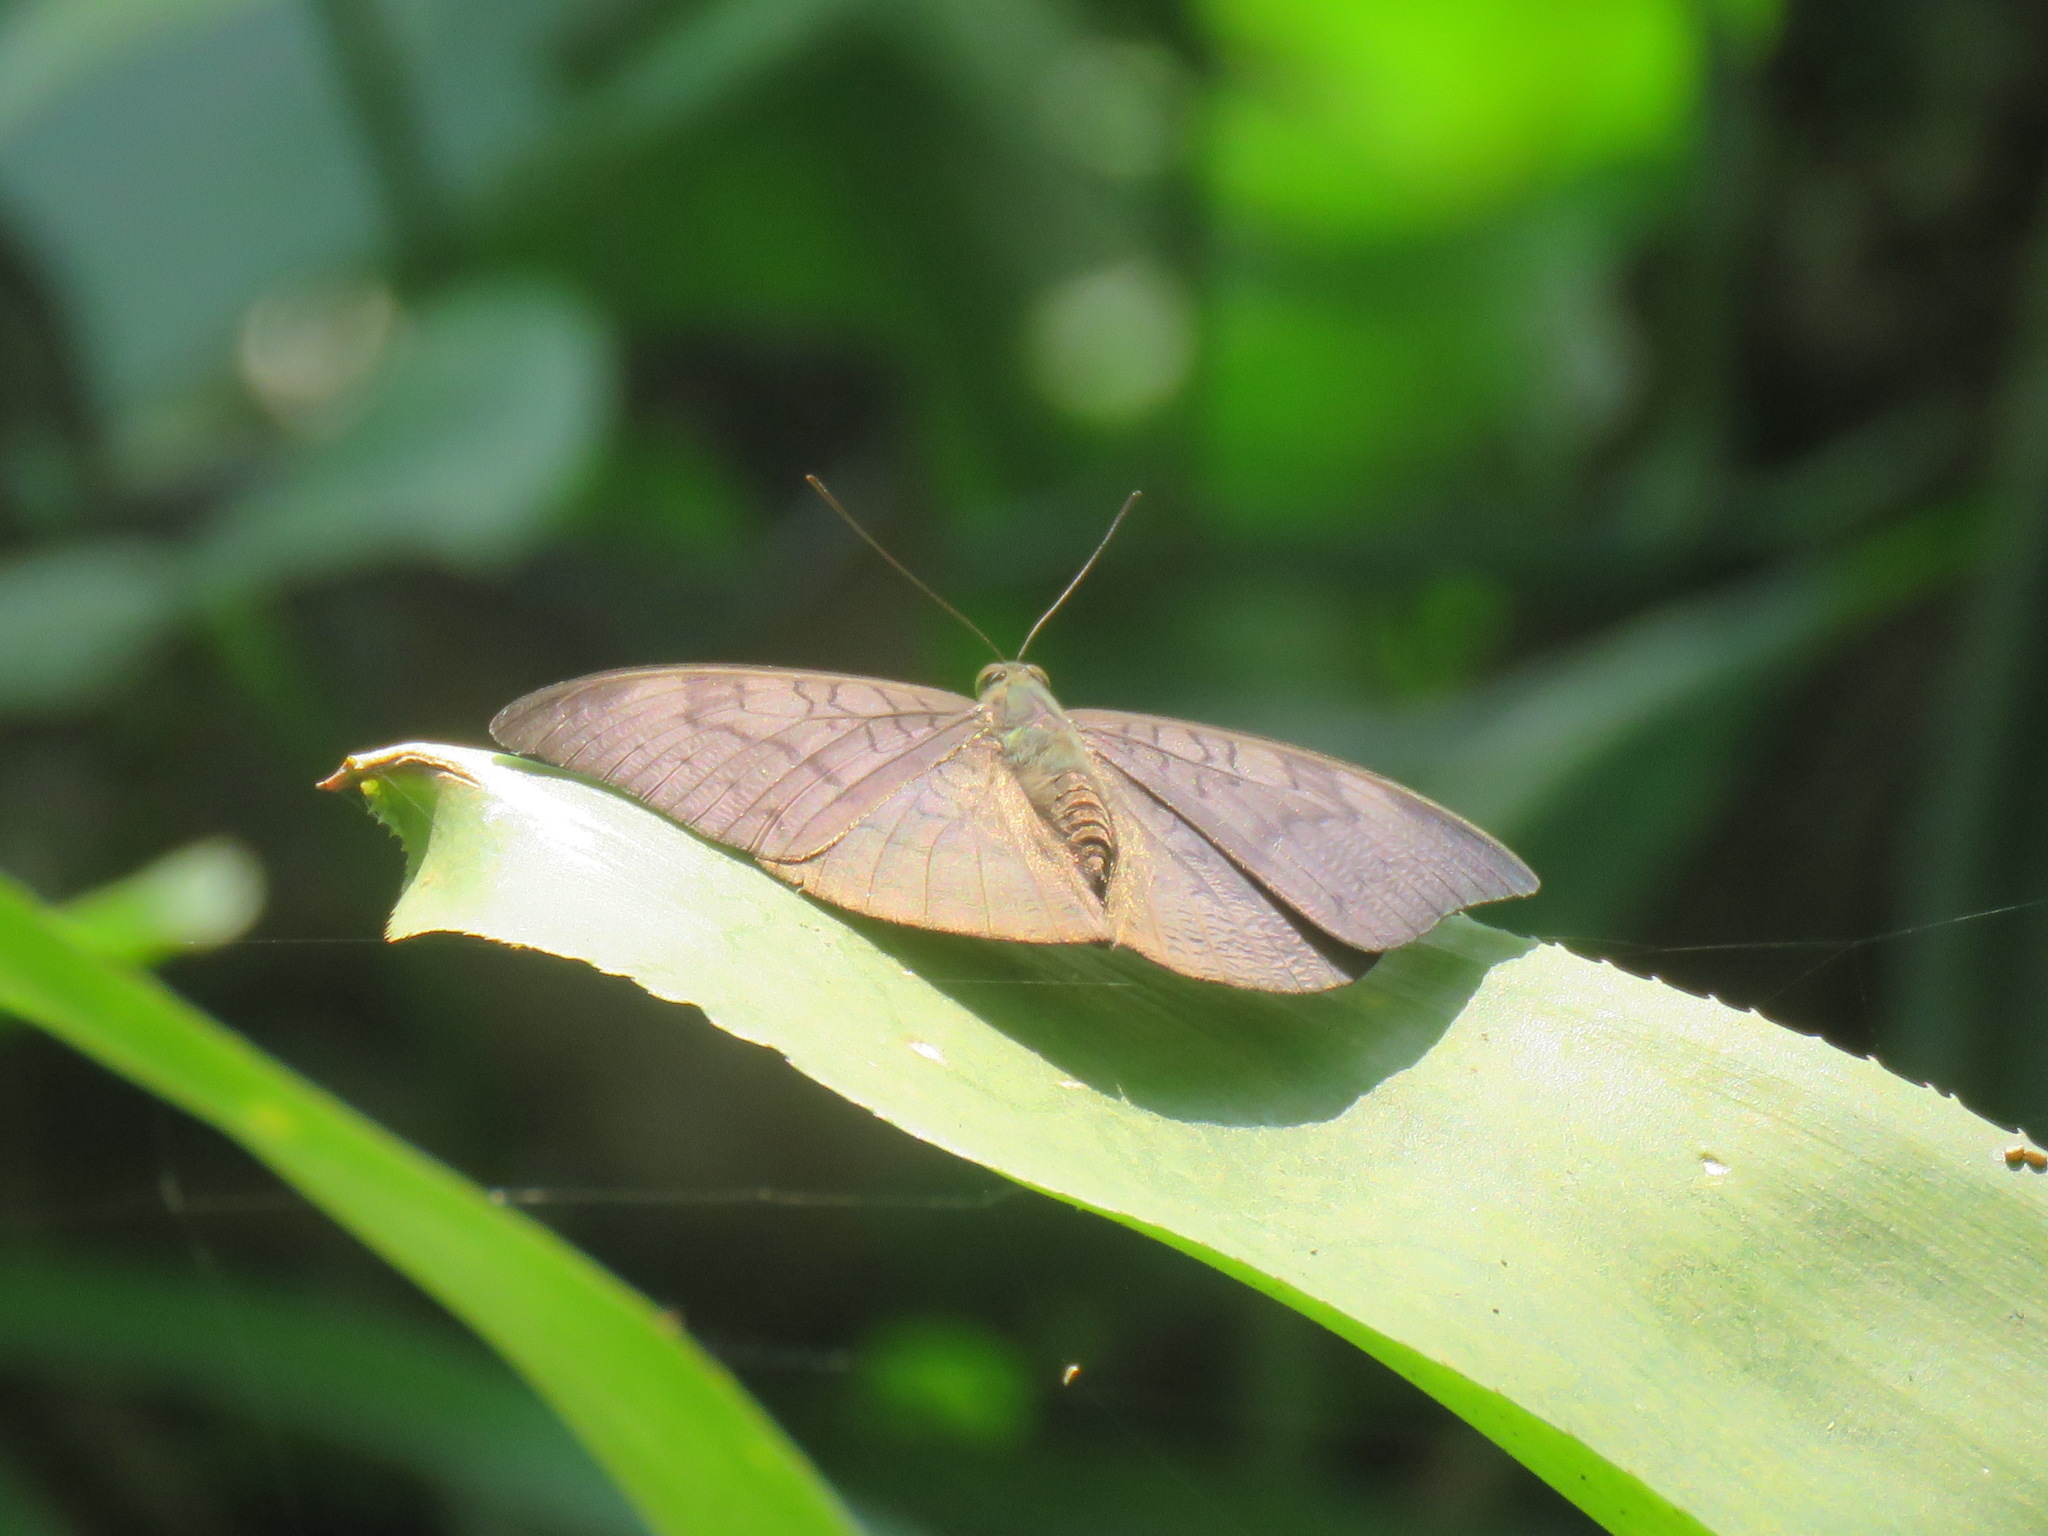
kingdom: Animalia
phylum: Arthropoda
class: Insecta
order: Lepidoptera
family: Nymphalidae
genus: Tanaecia
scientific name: Tanaecia jahnu
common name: Plain earl
